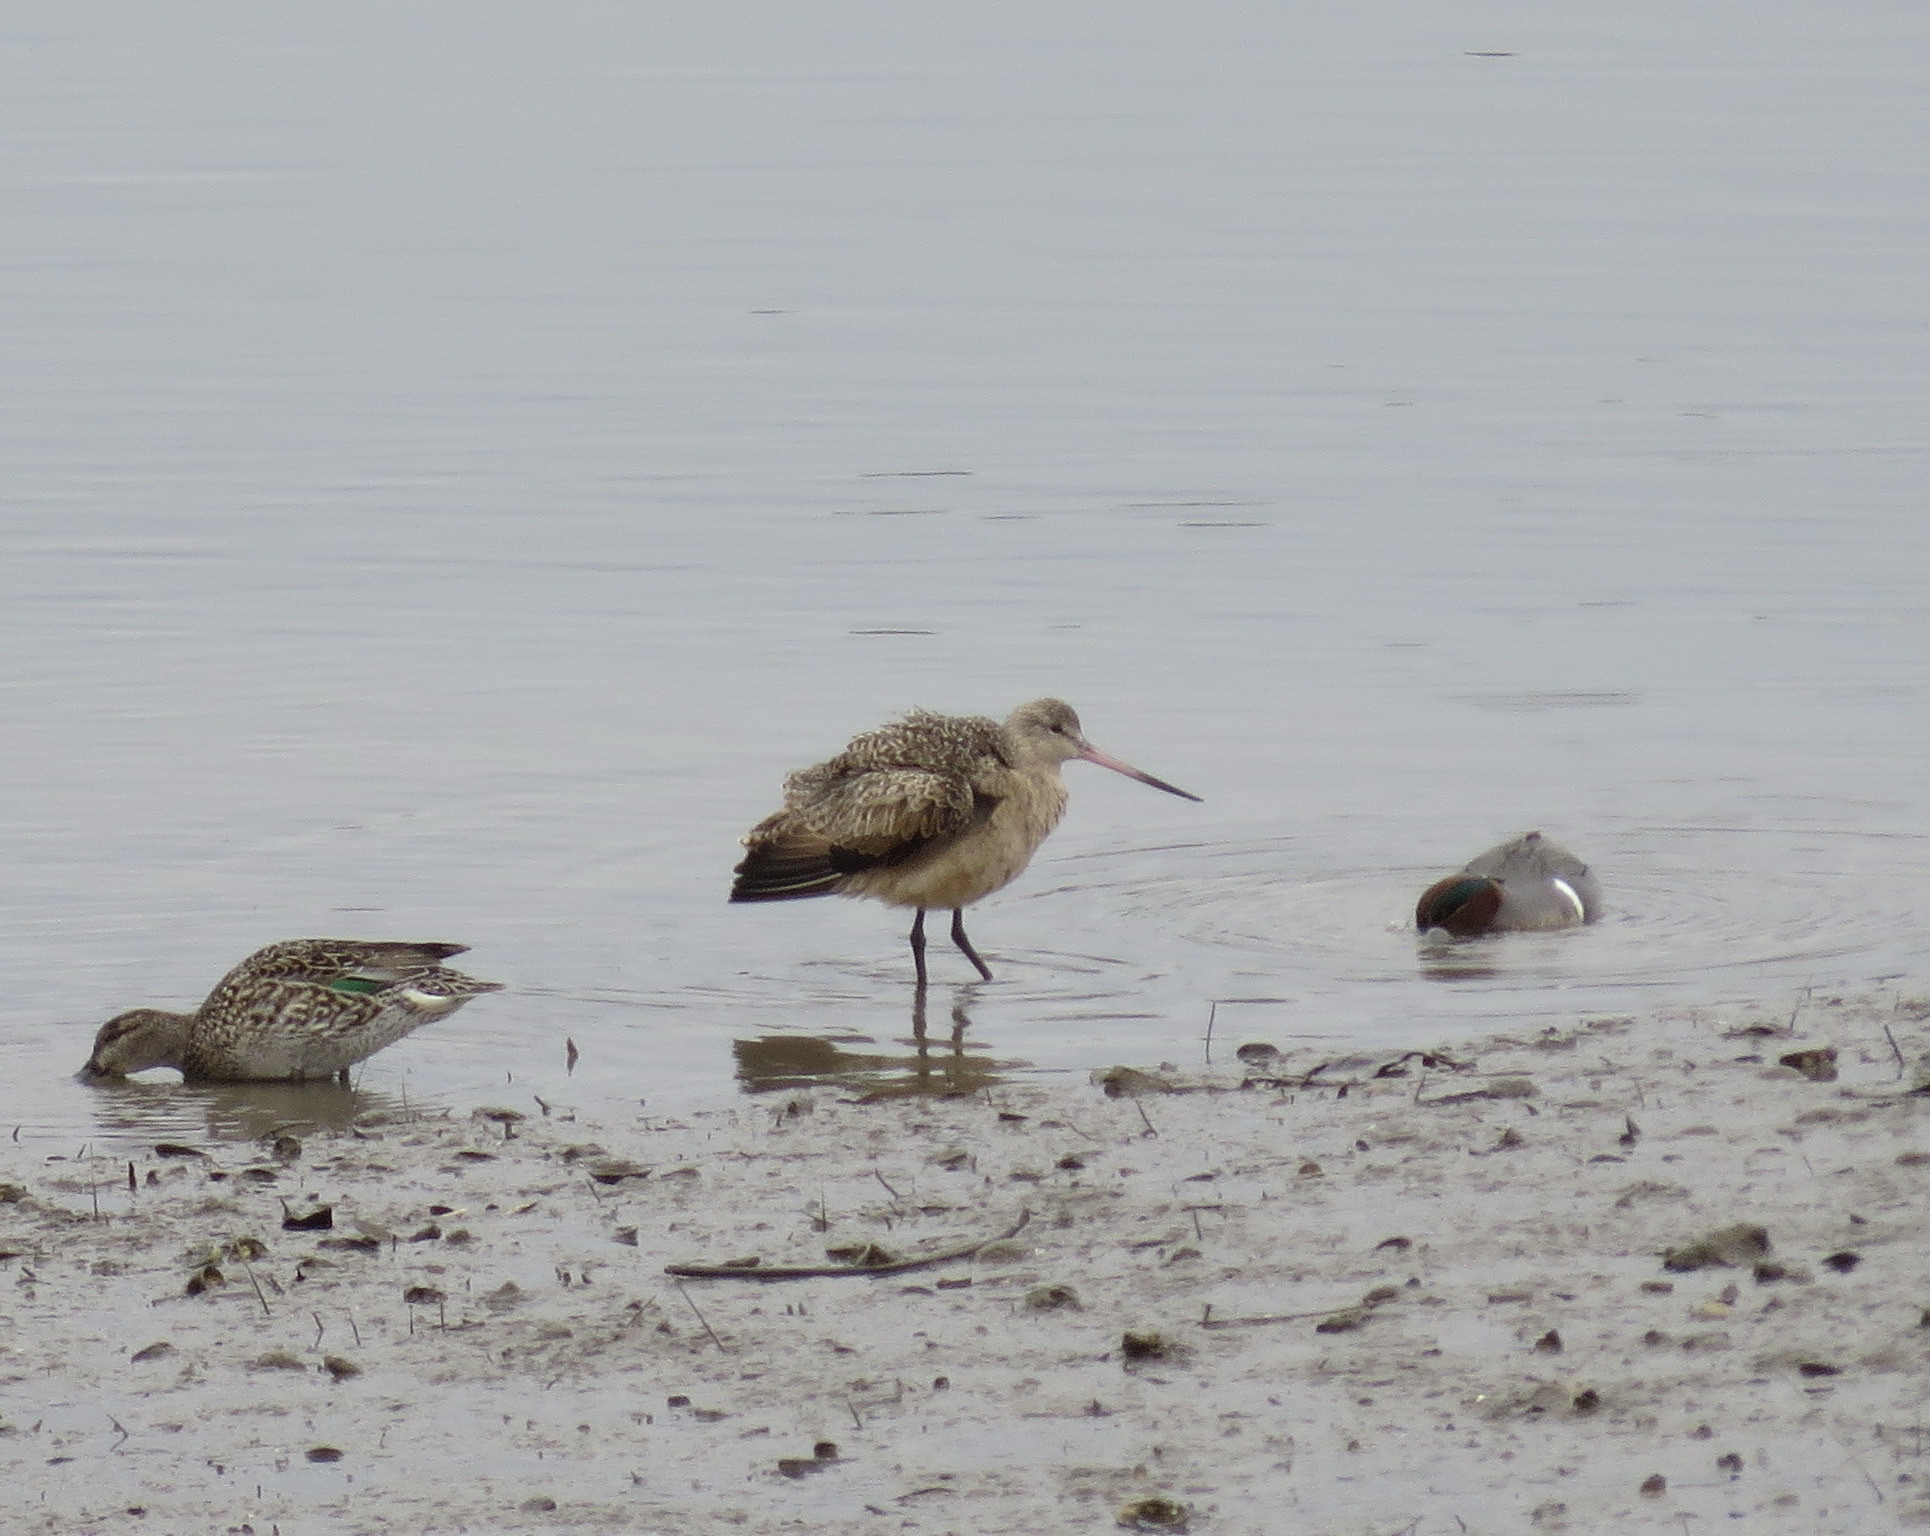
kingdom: Animalia
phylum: Chordata
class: Aves
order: Charadriiformes
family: Scolopacidae
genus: Limosa
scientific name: Limosa fedoa
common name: Marbled godwit
